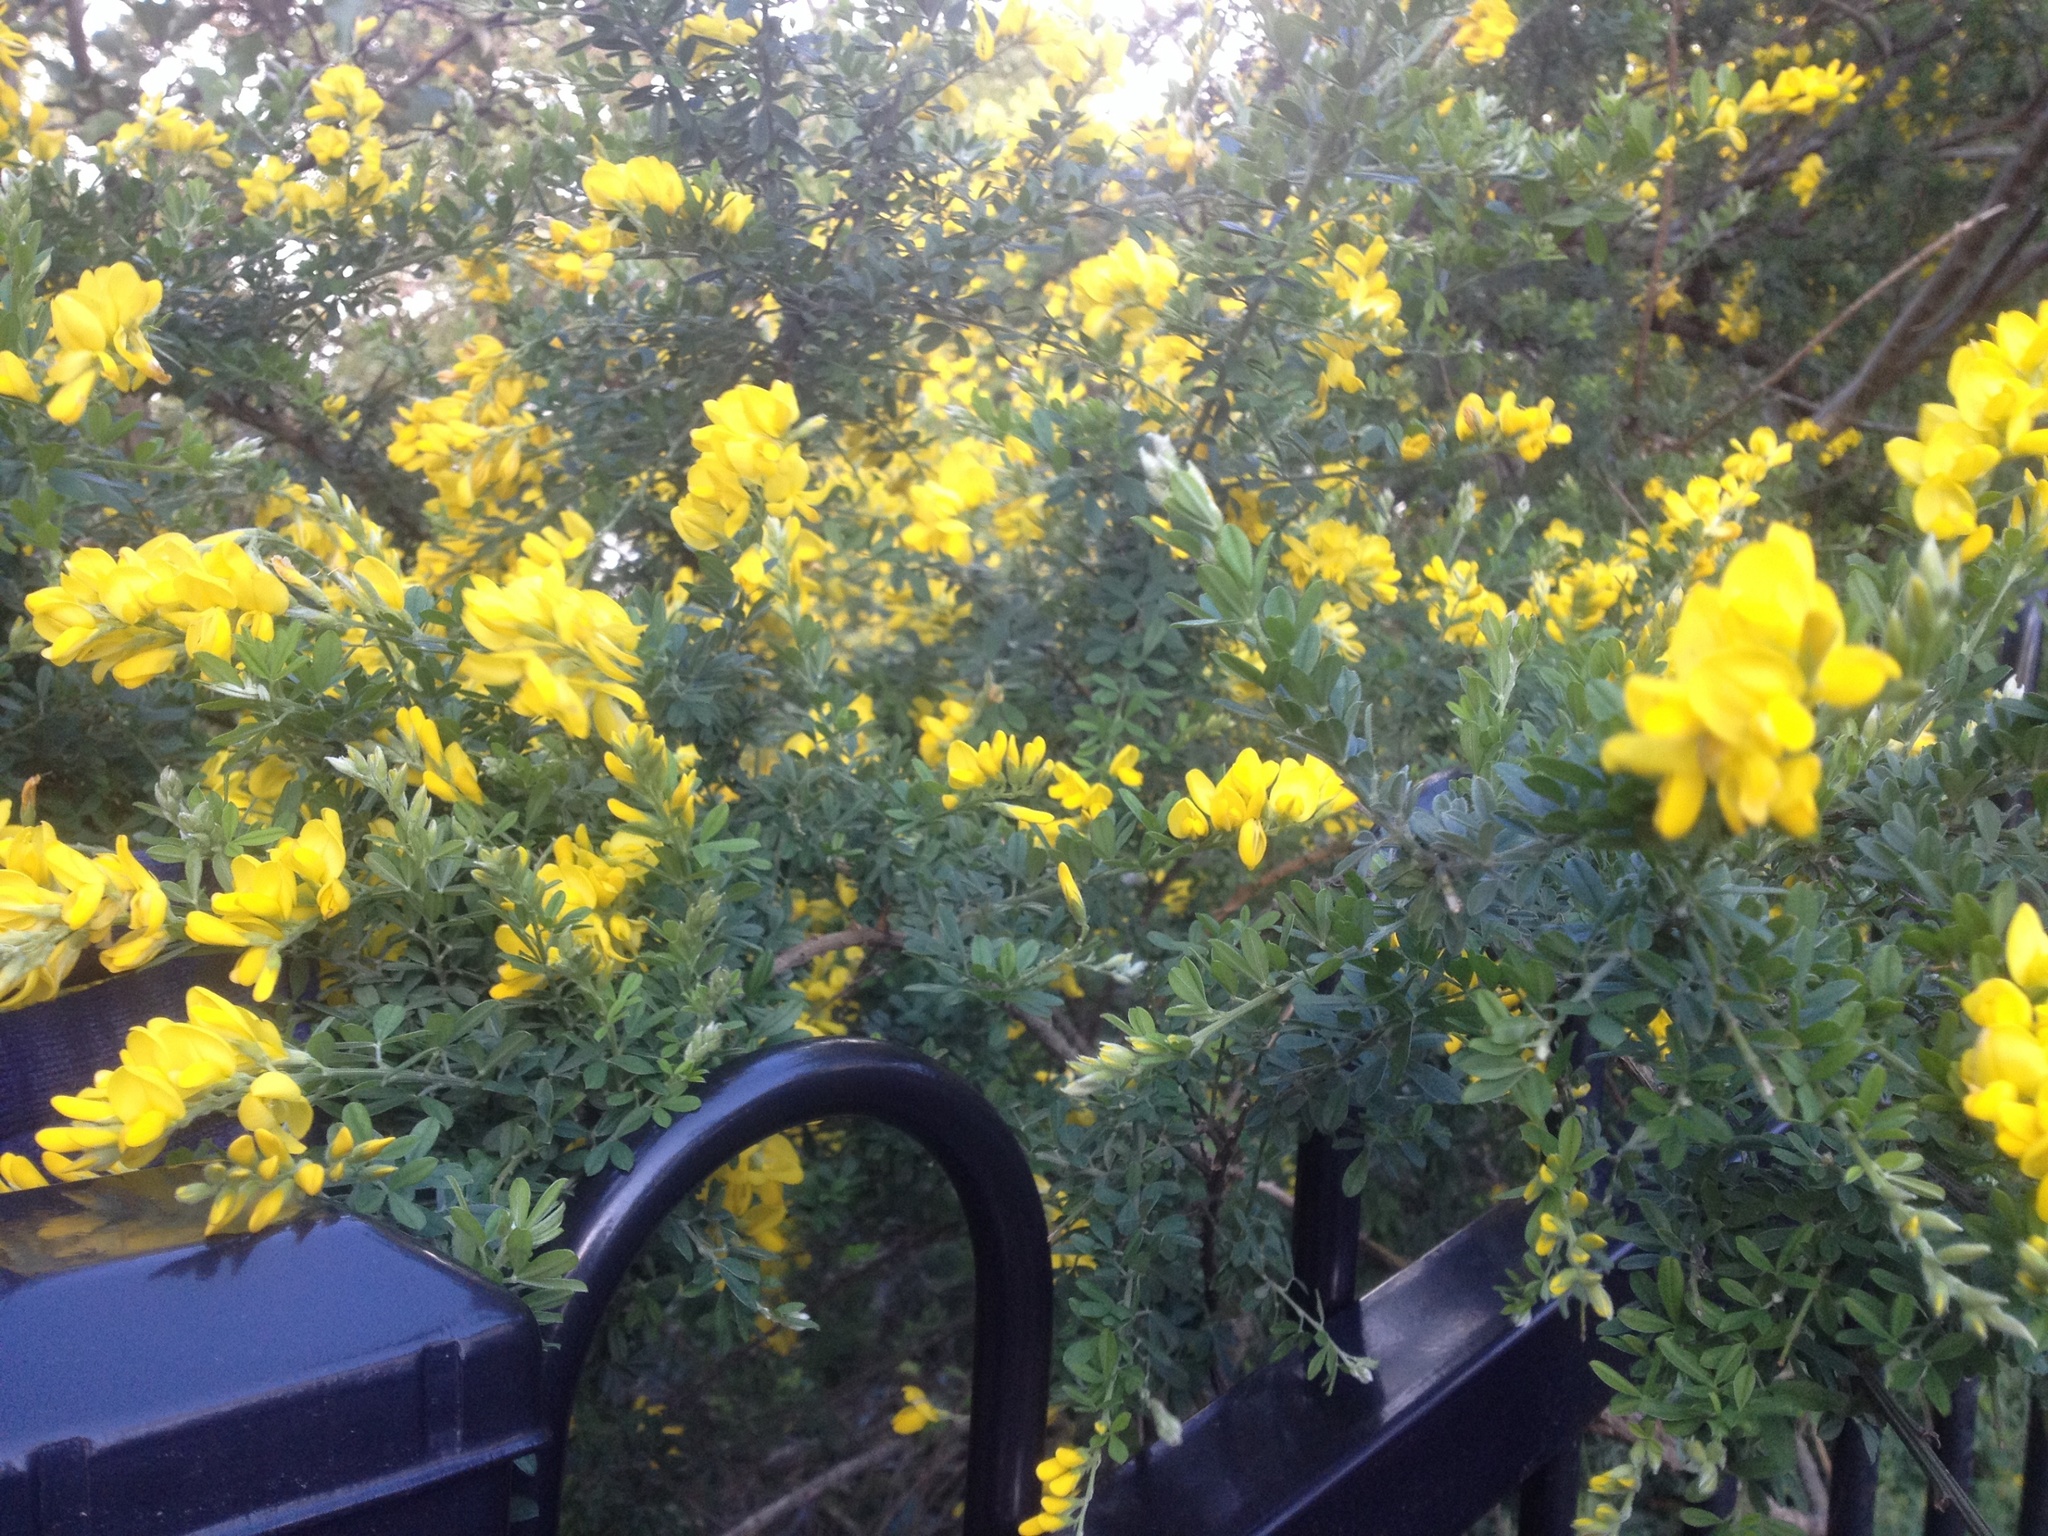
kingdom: Plantae
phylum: Tracheophyta
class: Magnoliopsida
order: Fabales
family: Fabaceae
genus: Genista
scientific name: Genista monspessulana
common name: Montpellier broom
